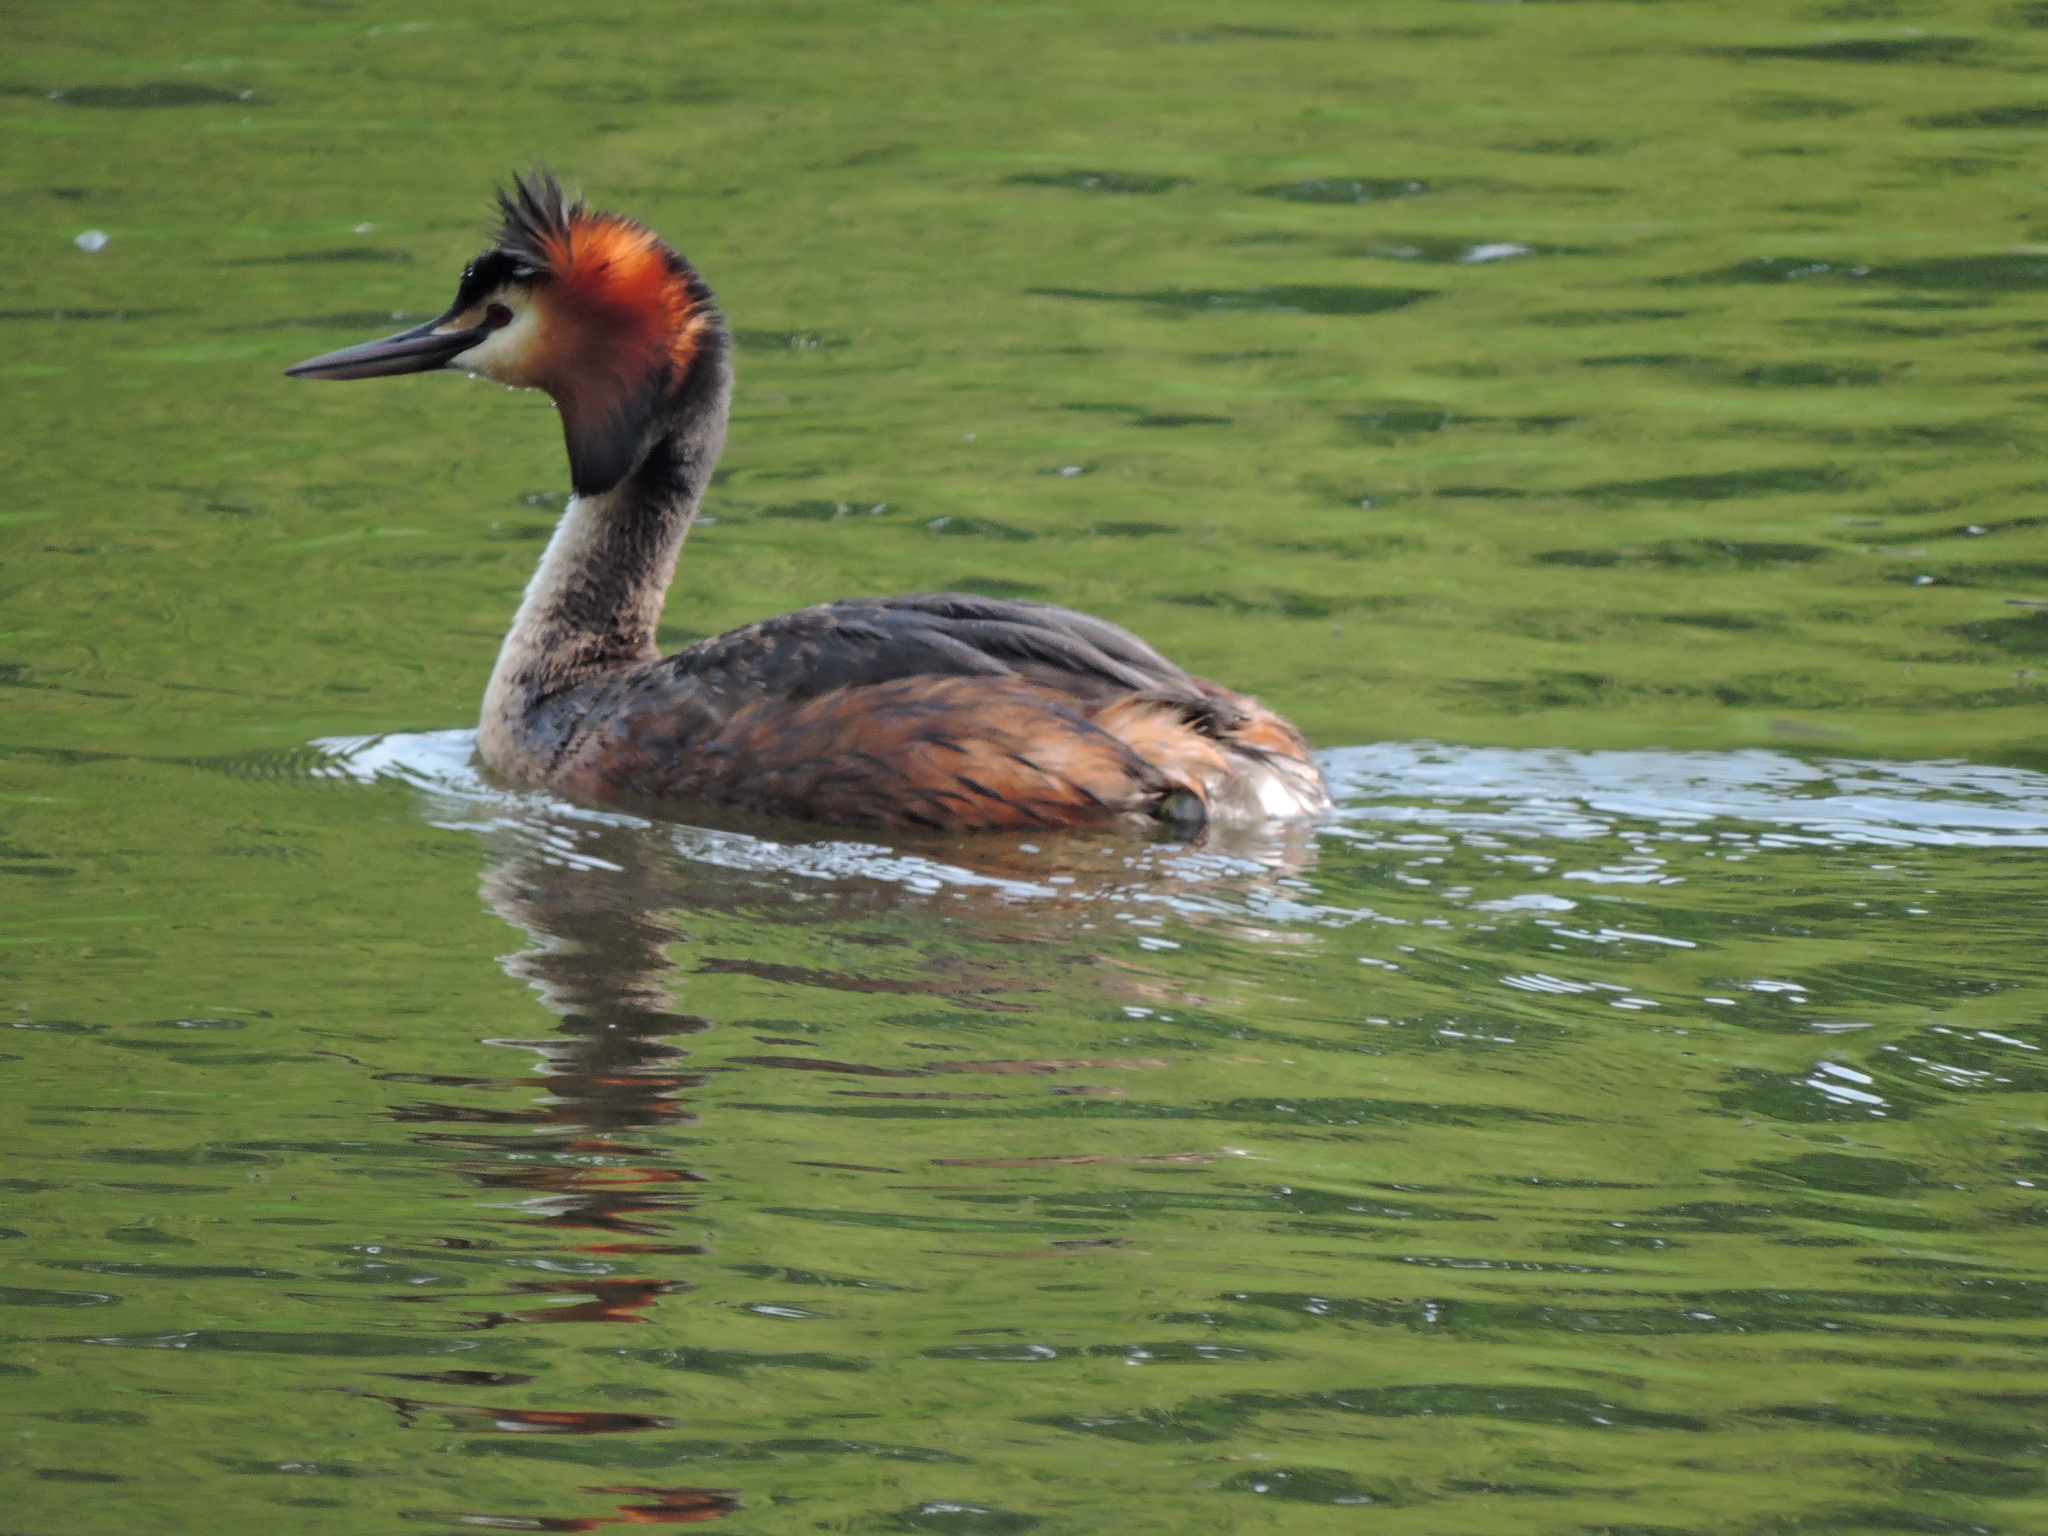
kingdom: Animalia
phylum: Chordata
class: Aves
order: Podicipediformes
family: Podicipedidae
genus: Podiceps
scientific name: Podiceps cristatus
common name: Great crested grebe
